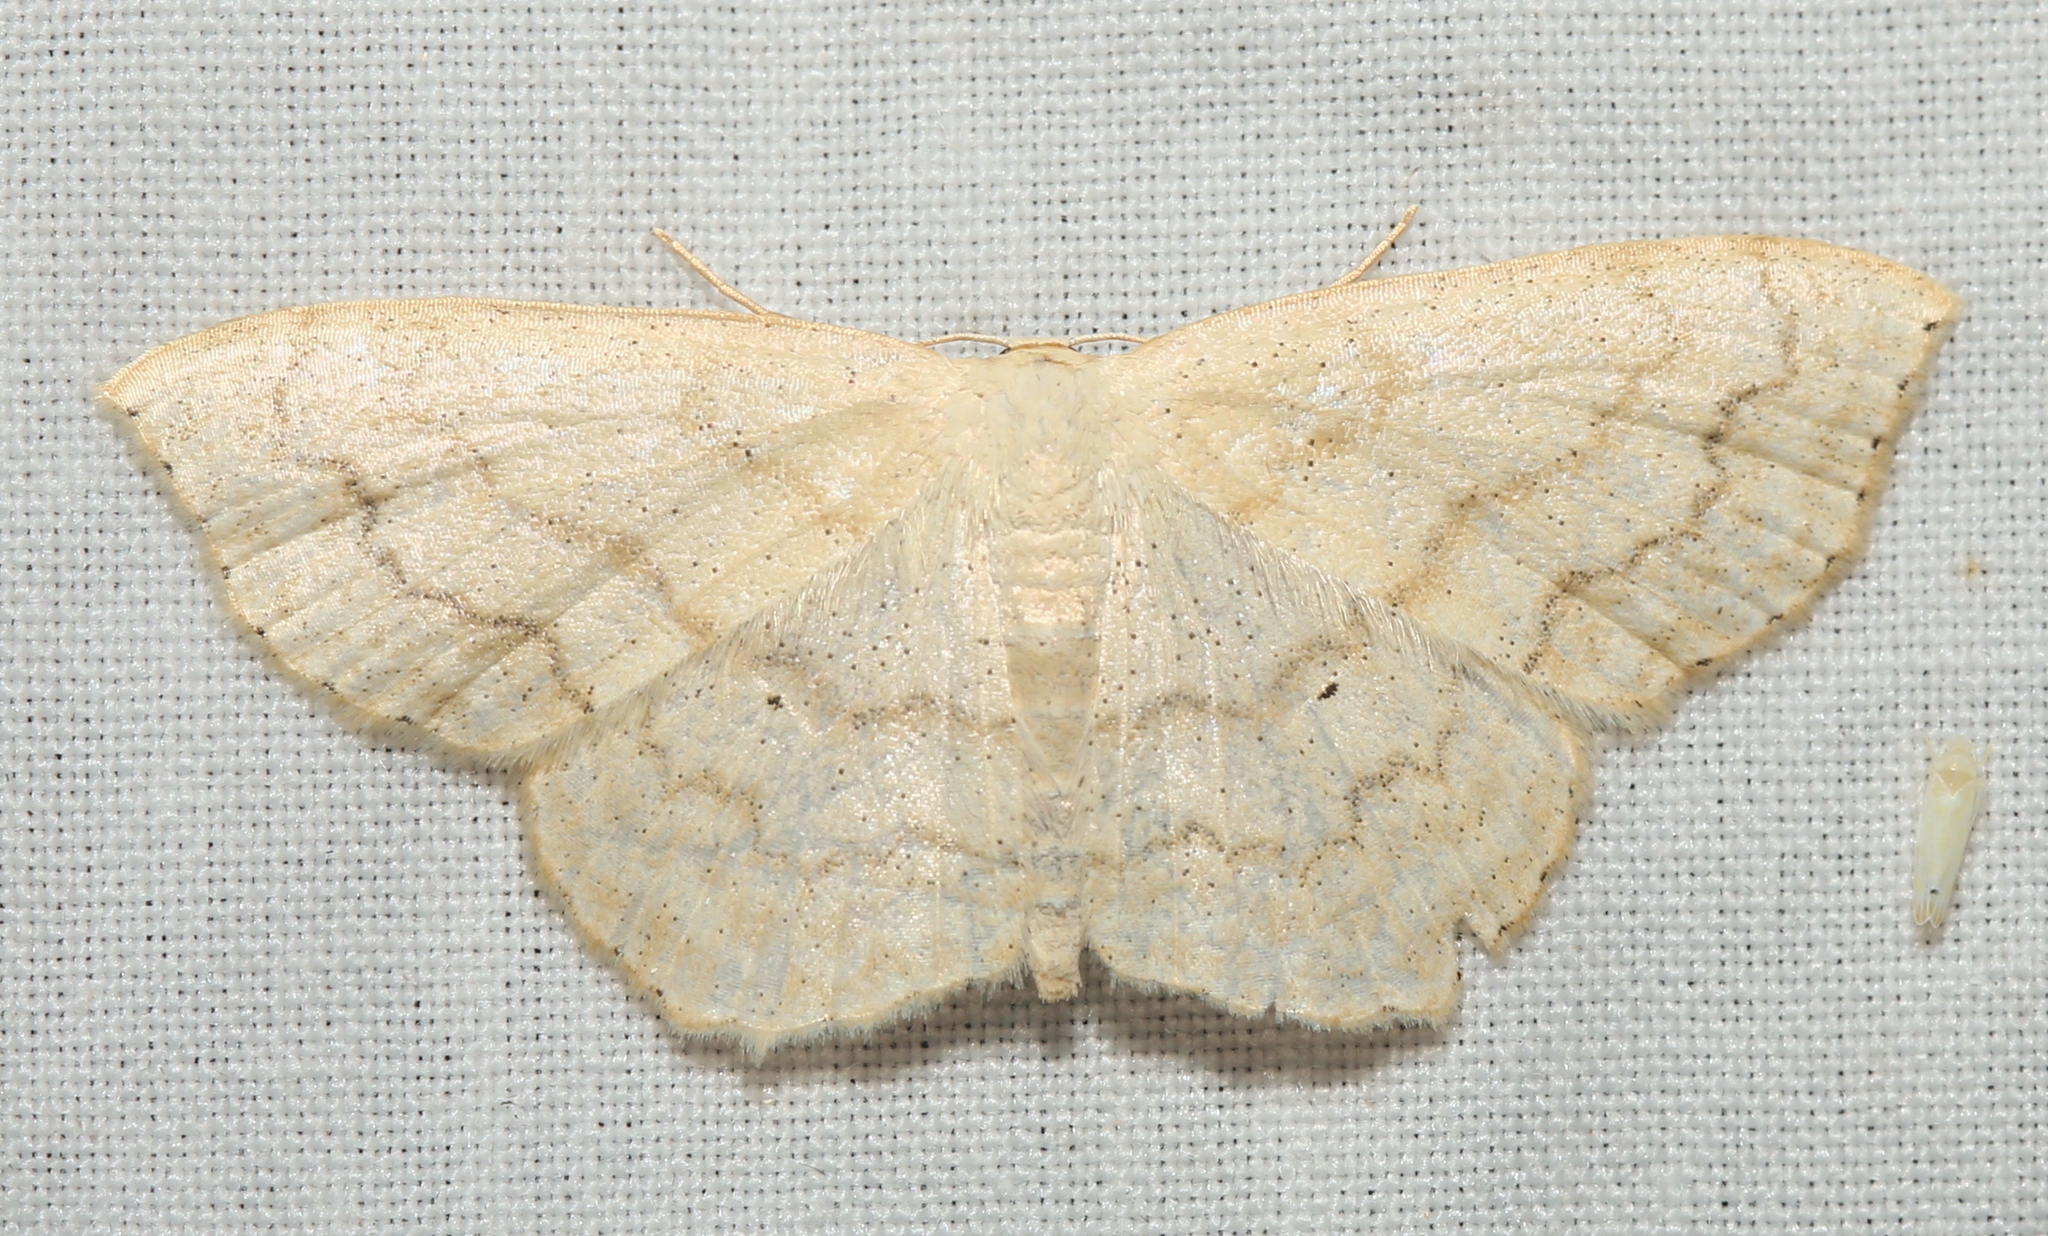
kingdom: Animalia
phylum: Arthropoda
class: Insecta
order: Lepidoptera
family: Geometridae
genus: Scopula
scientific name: Scopula limboundata
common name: Large lace border
